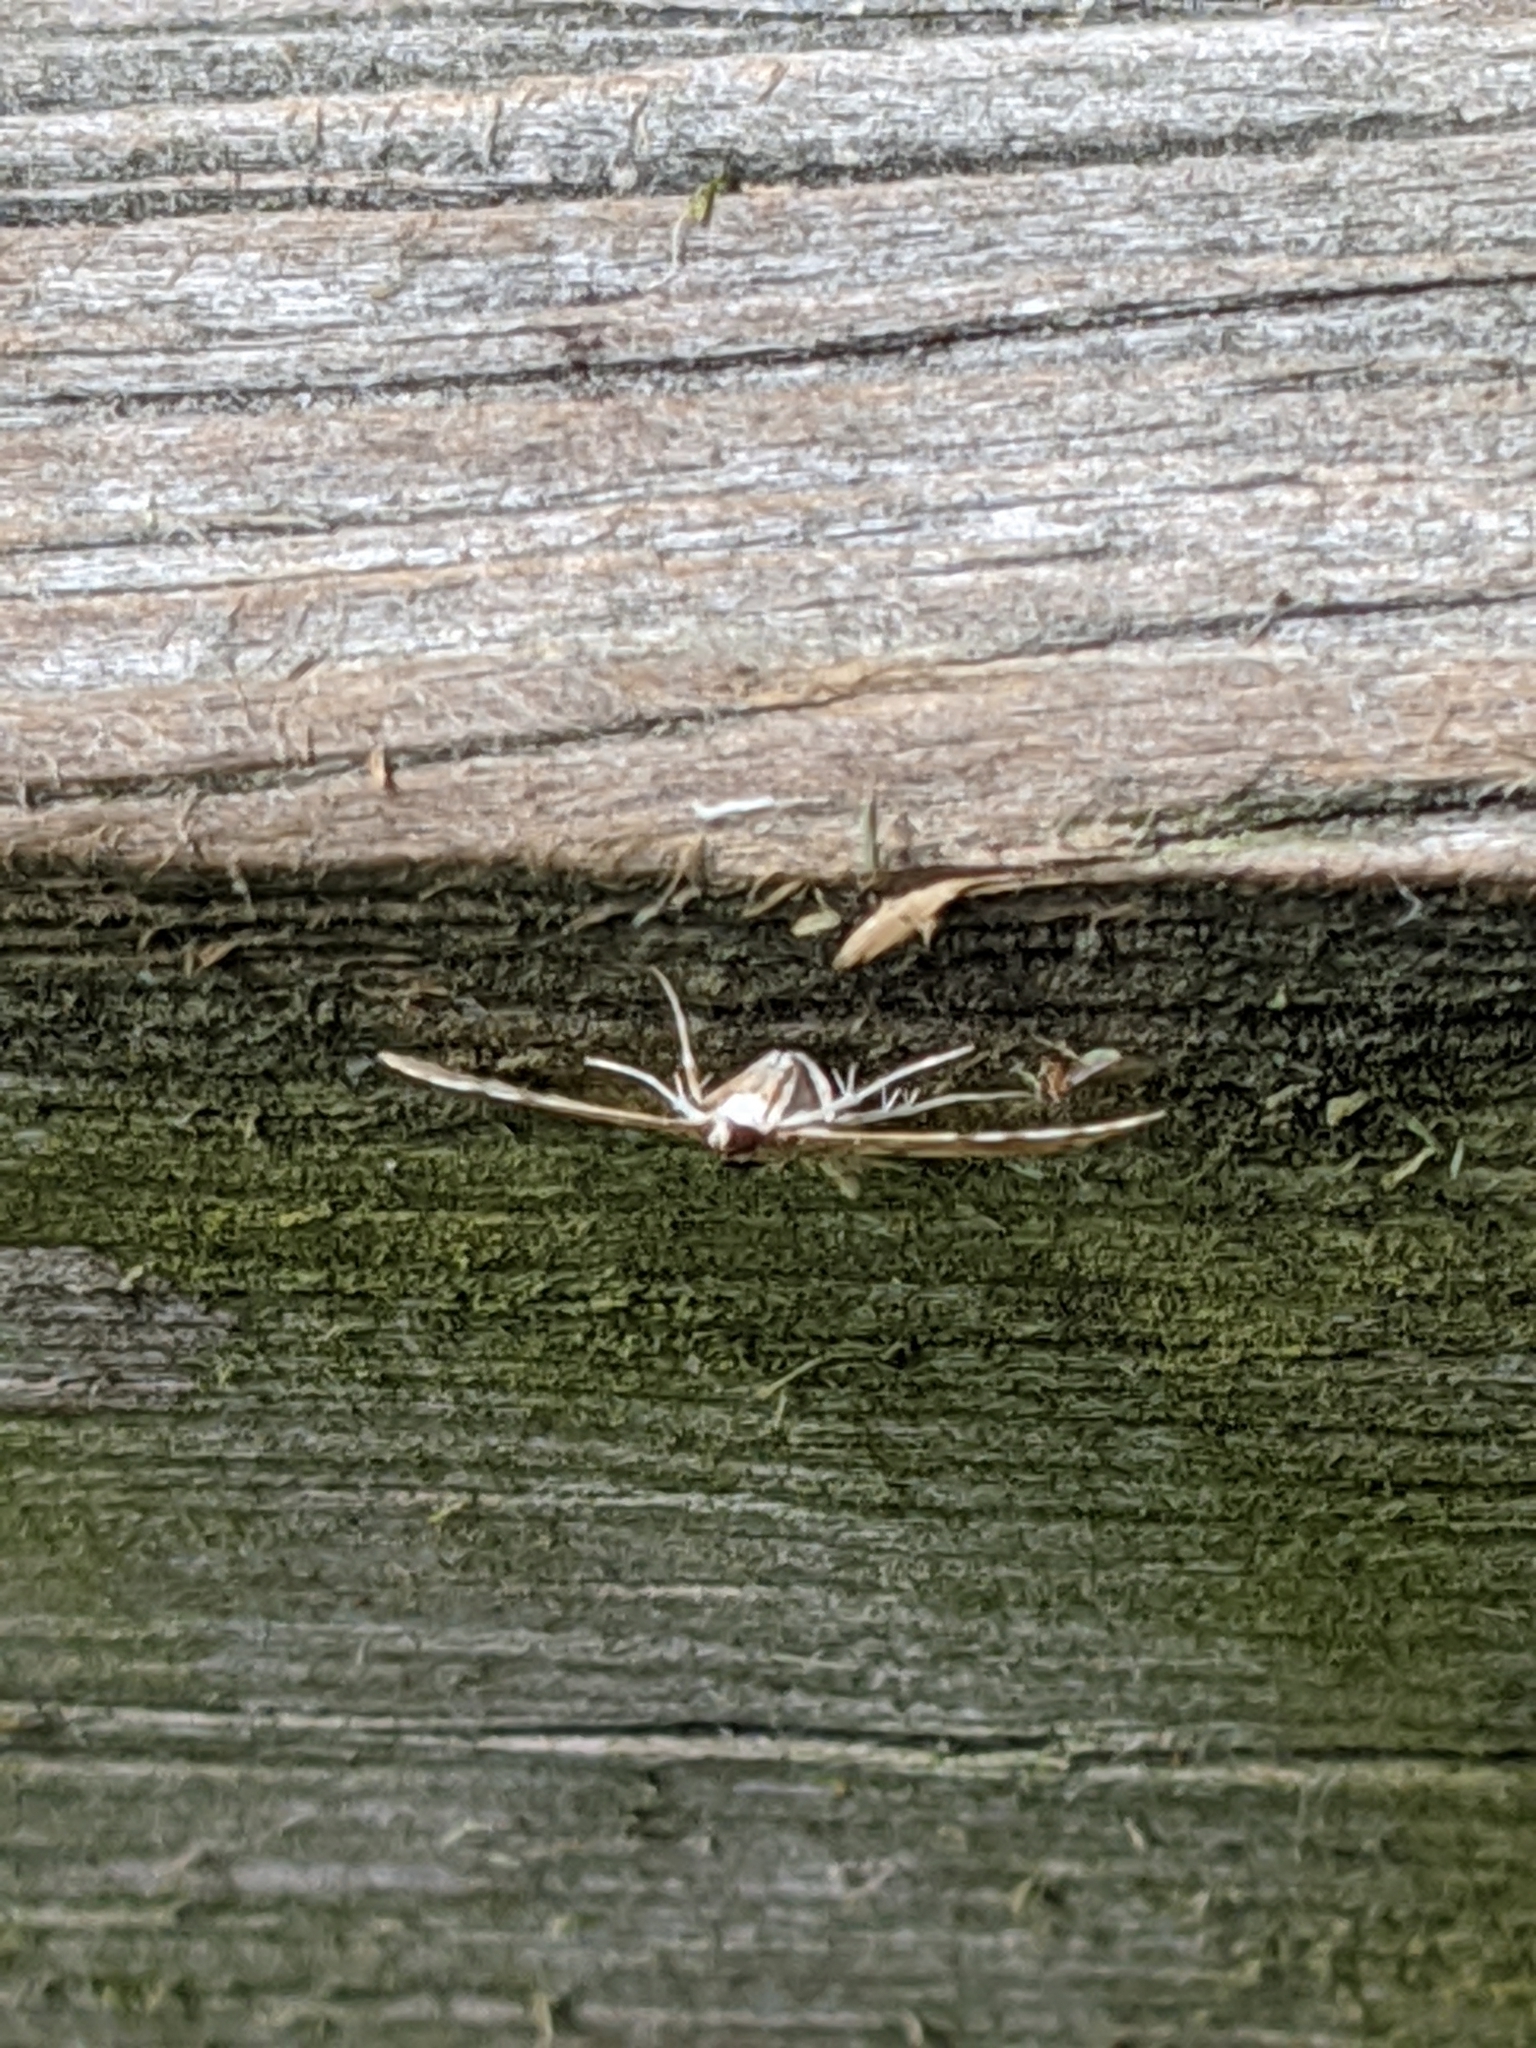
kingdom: Animalia
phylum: Arthropoda
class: Insecta
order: Lepidoptera
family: Crambidae
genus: Samea
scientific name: Samea multiplicalis
